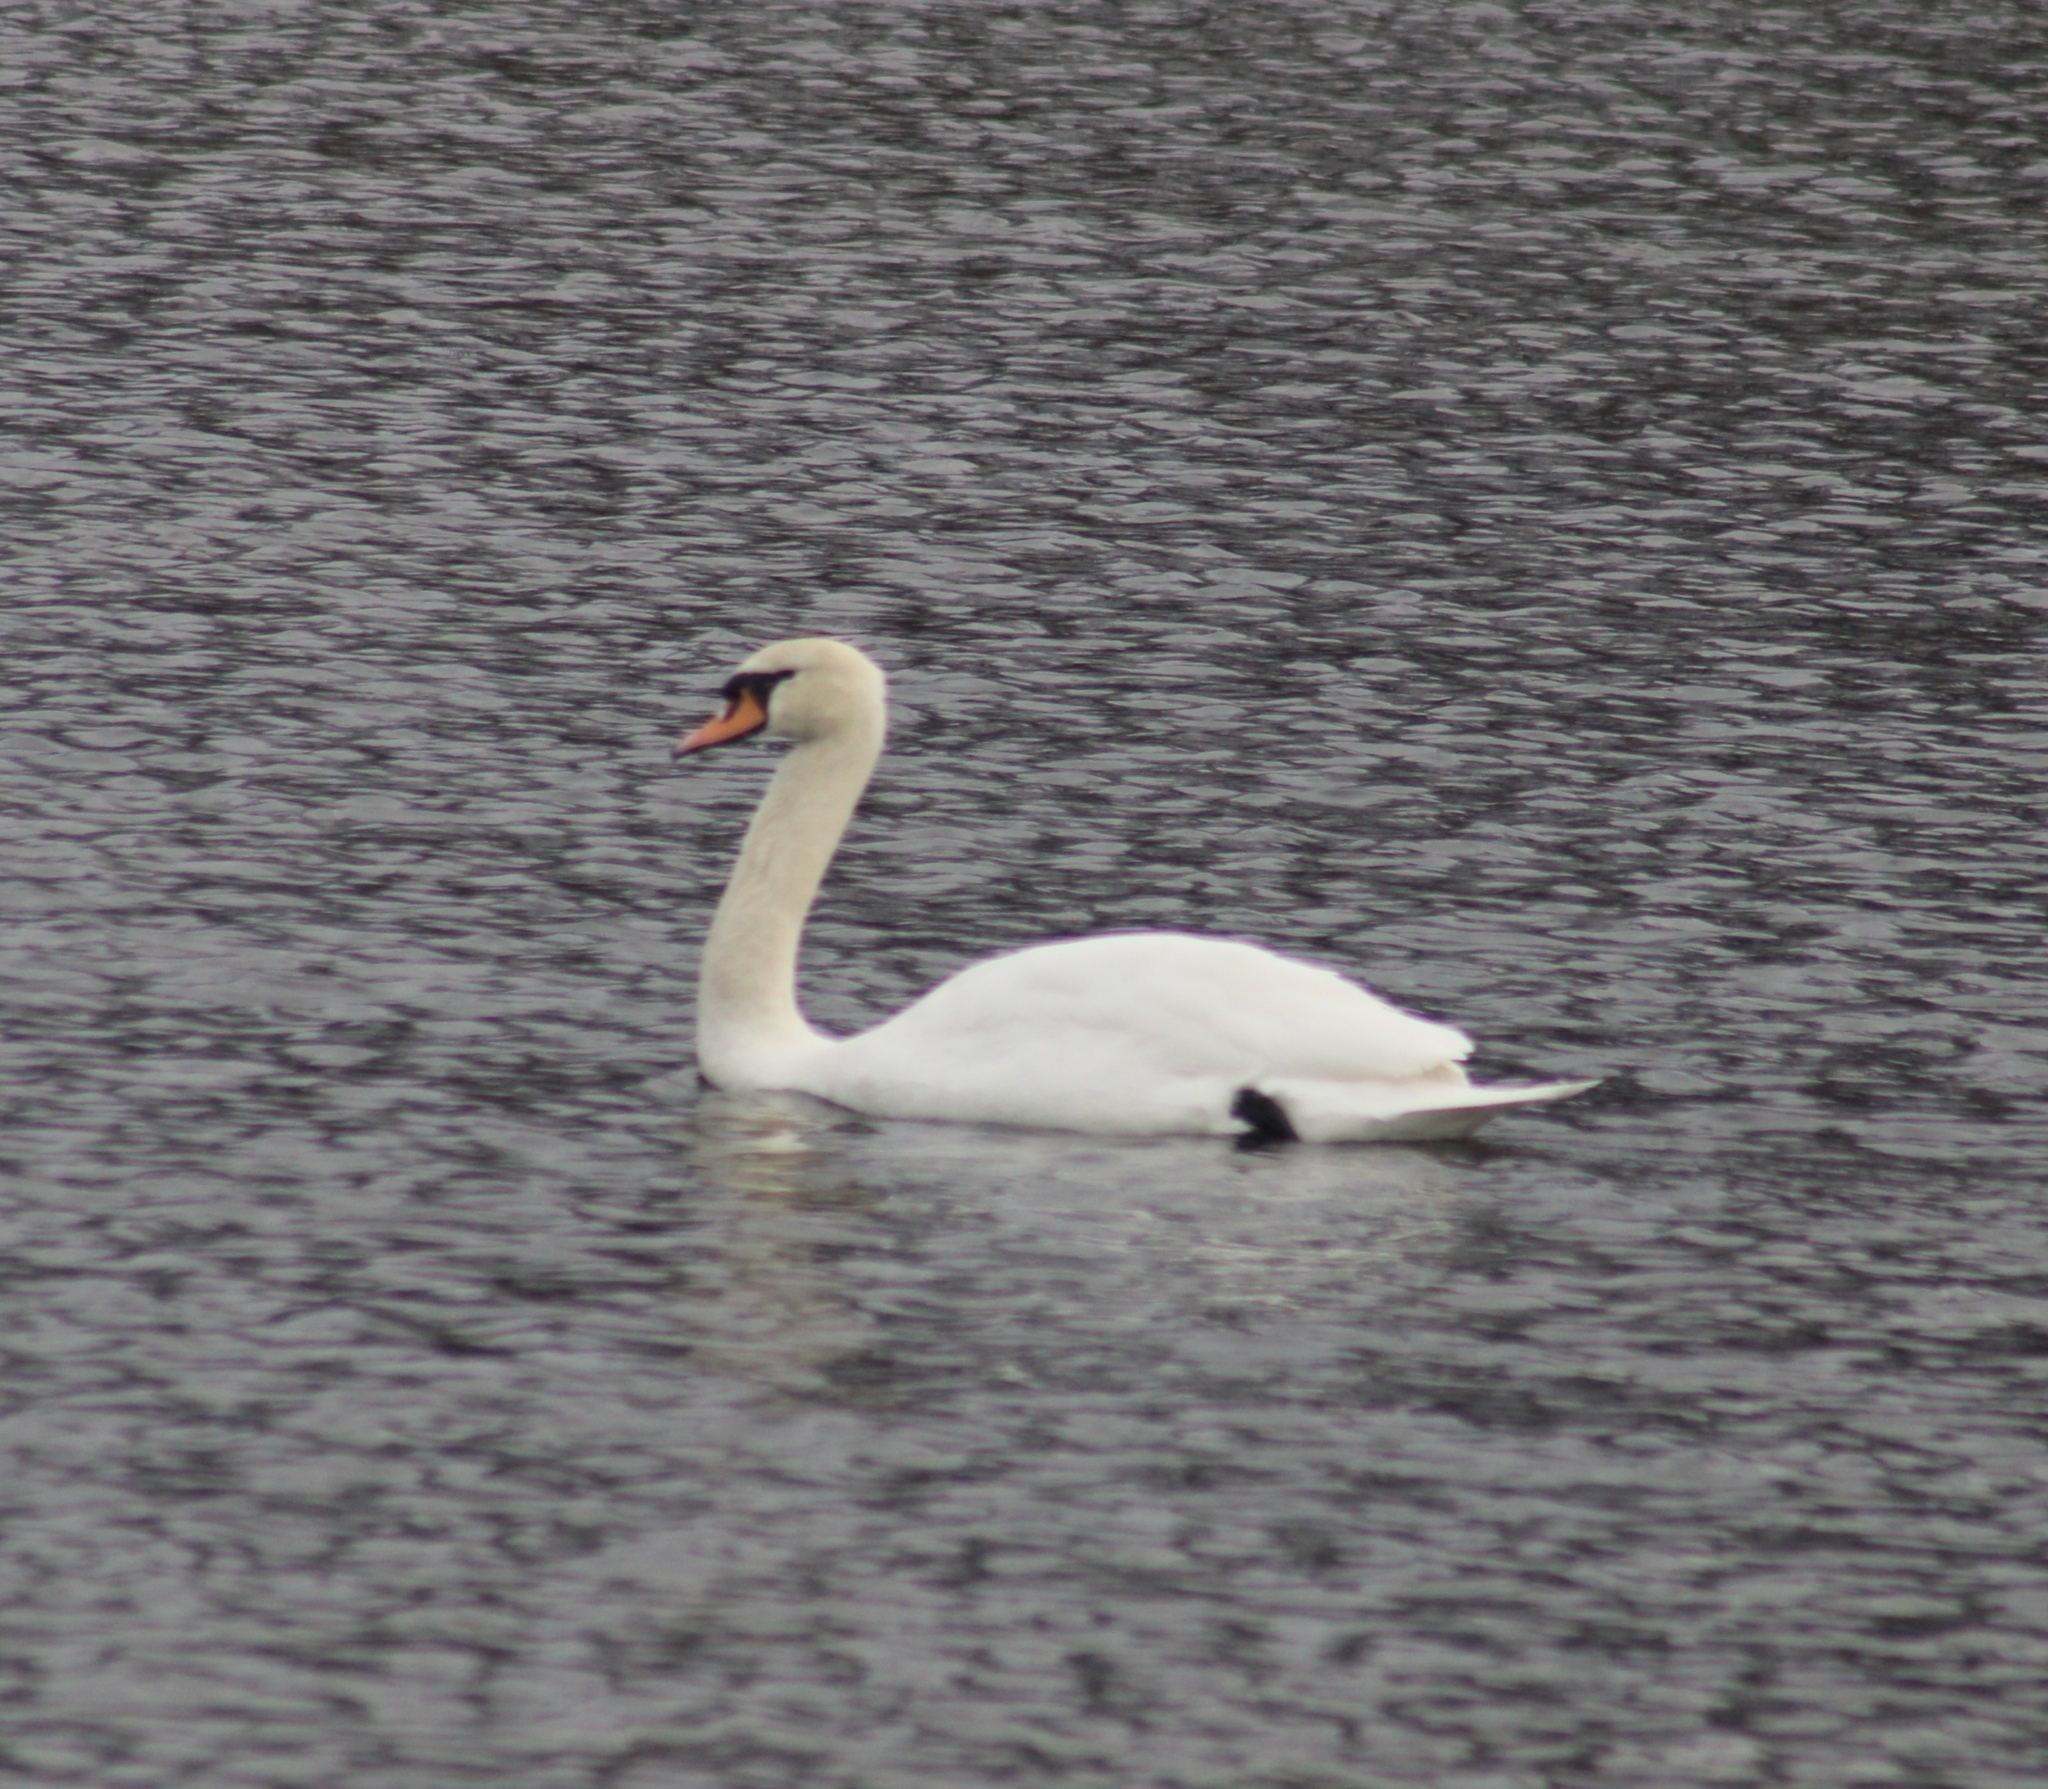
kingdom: Animalia
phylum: Chordata
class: Aves
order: Anseriformes
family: Anatidae
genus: Cygnus
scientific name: Cygnus olor
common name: Mute swan
